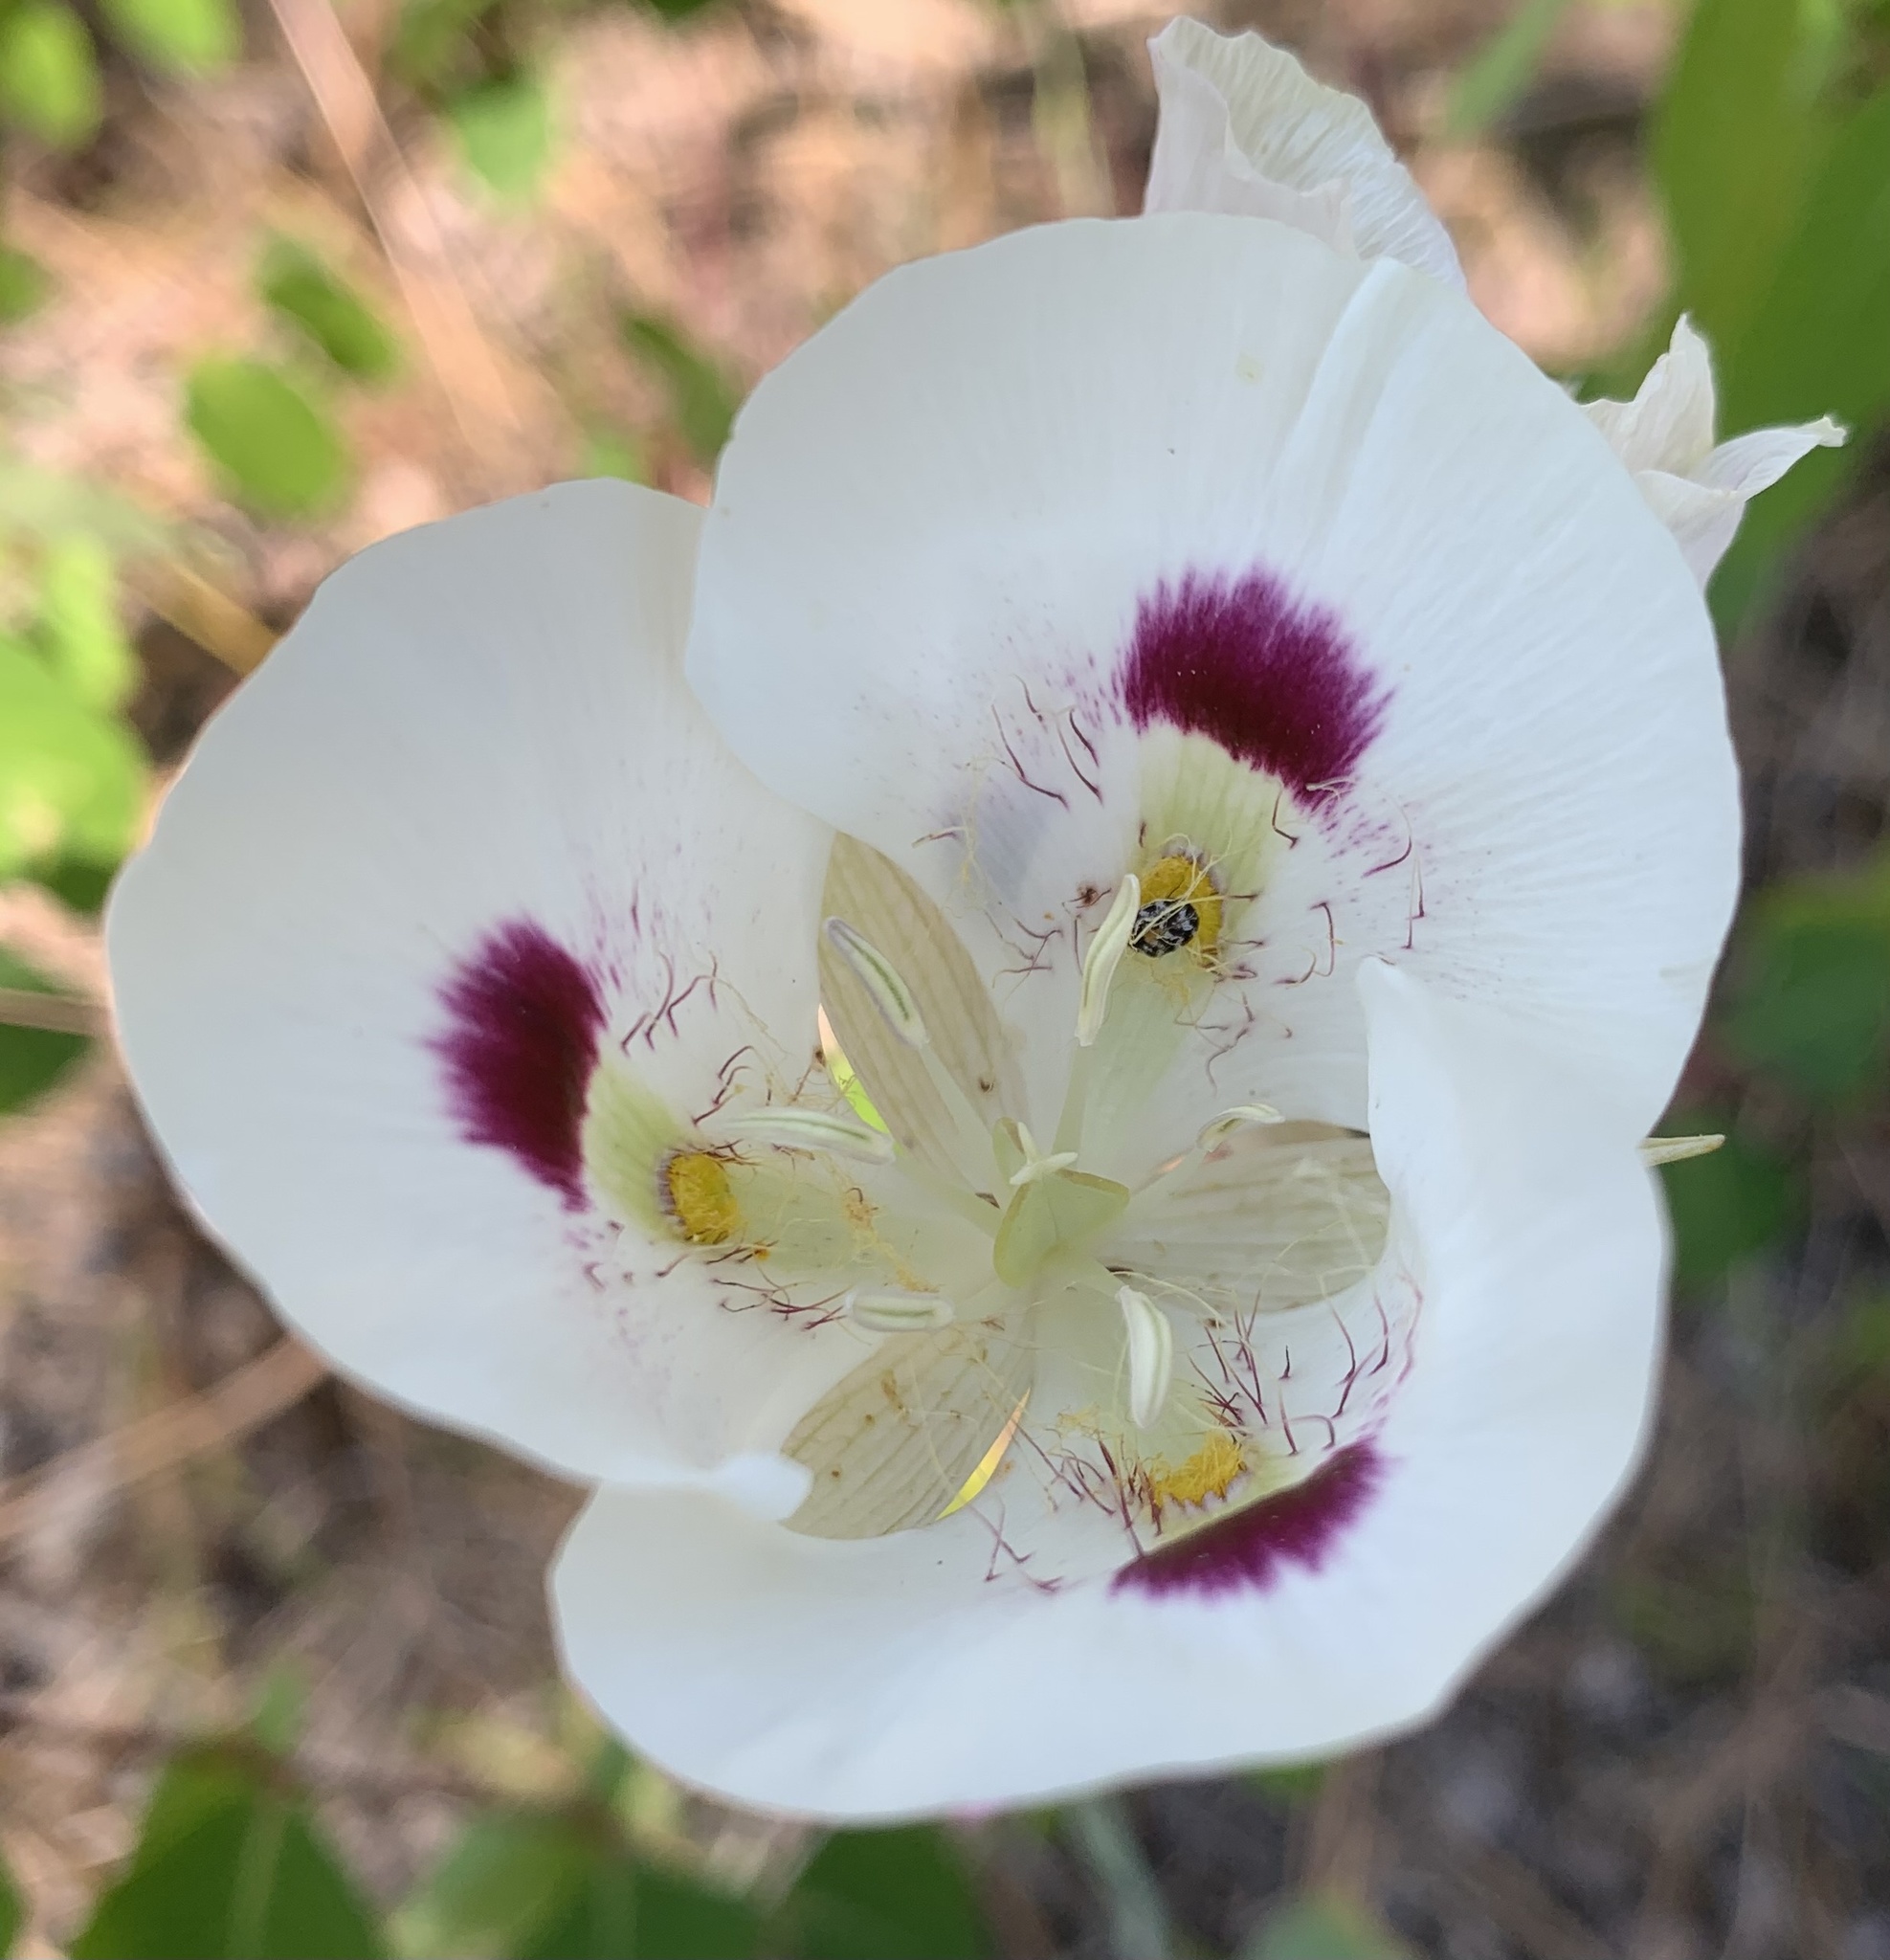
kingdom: Plantae
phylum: Tracheophyta
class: Liliopsida
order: Liliales
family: Liliaceae
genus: Calochortus
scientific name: Calochortus eurycarpus
